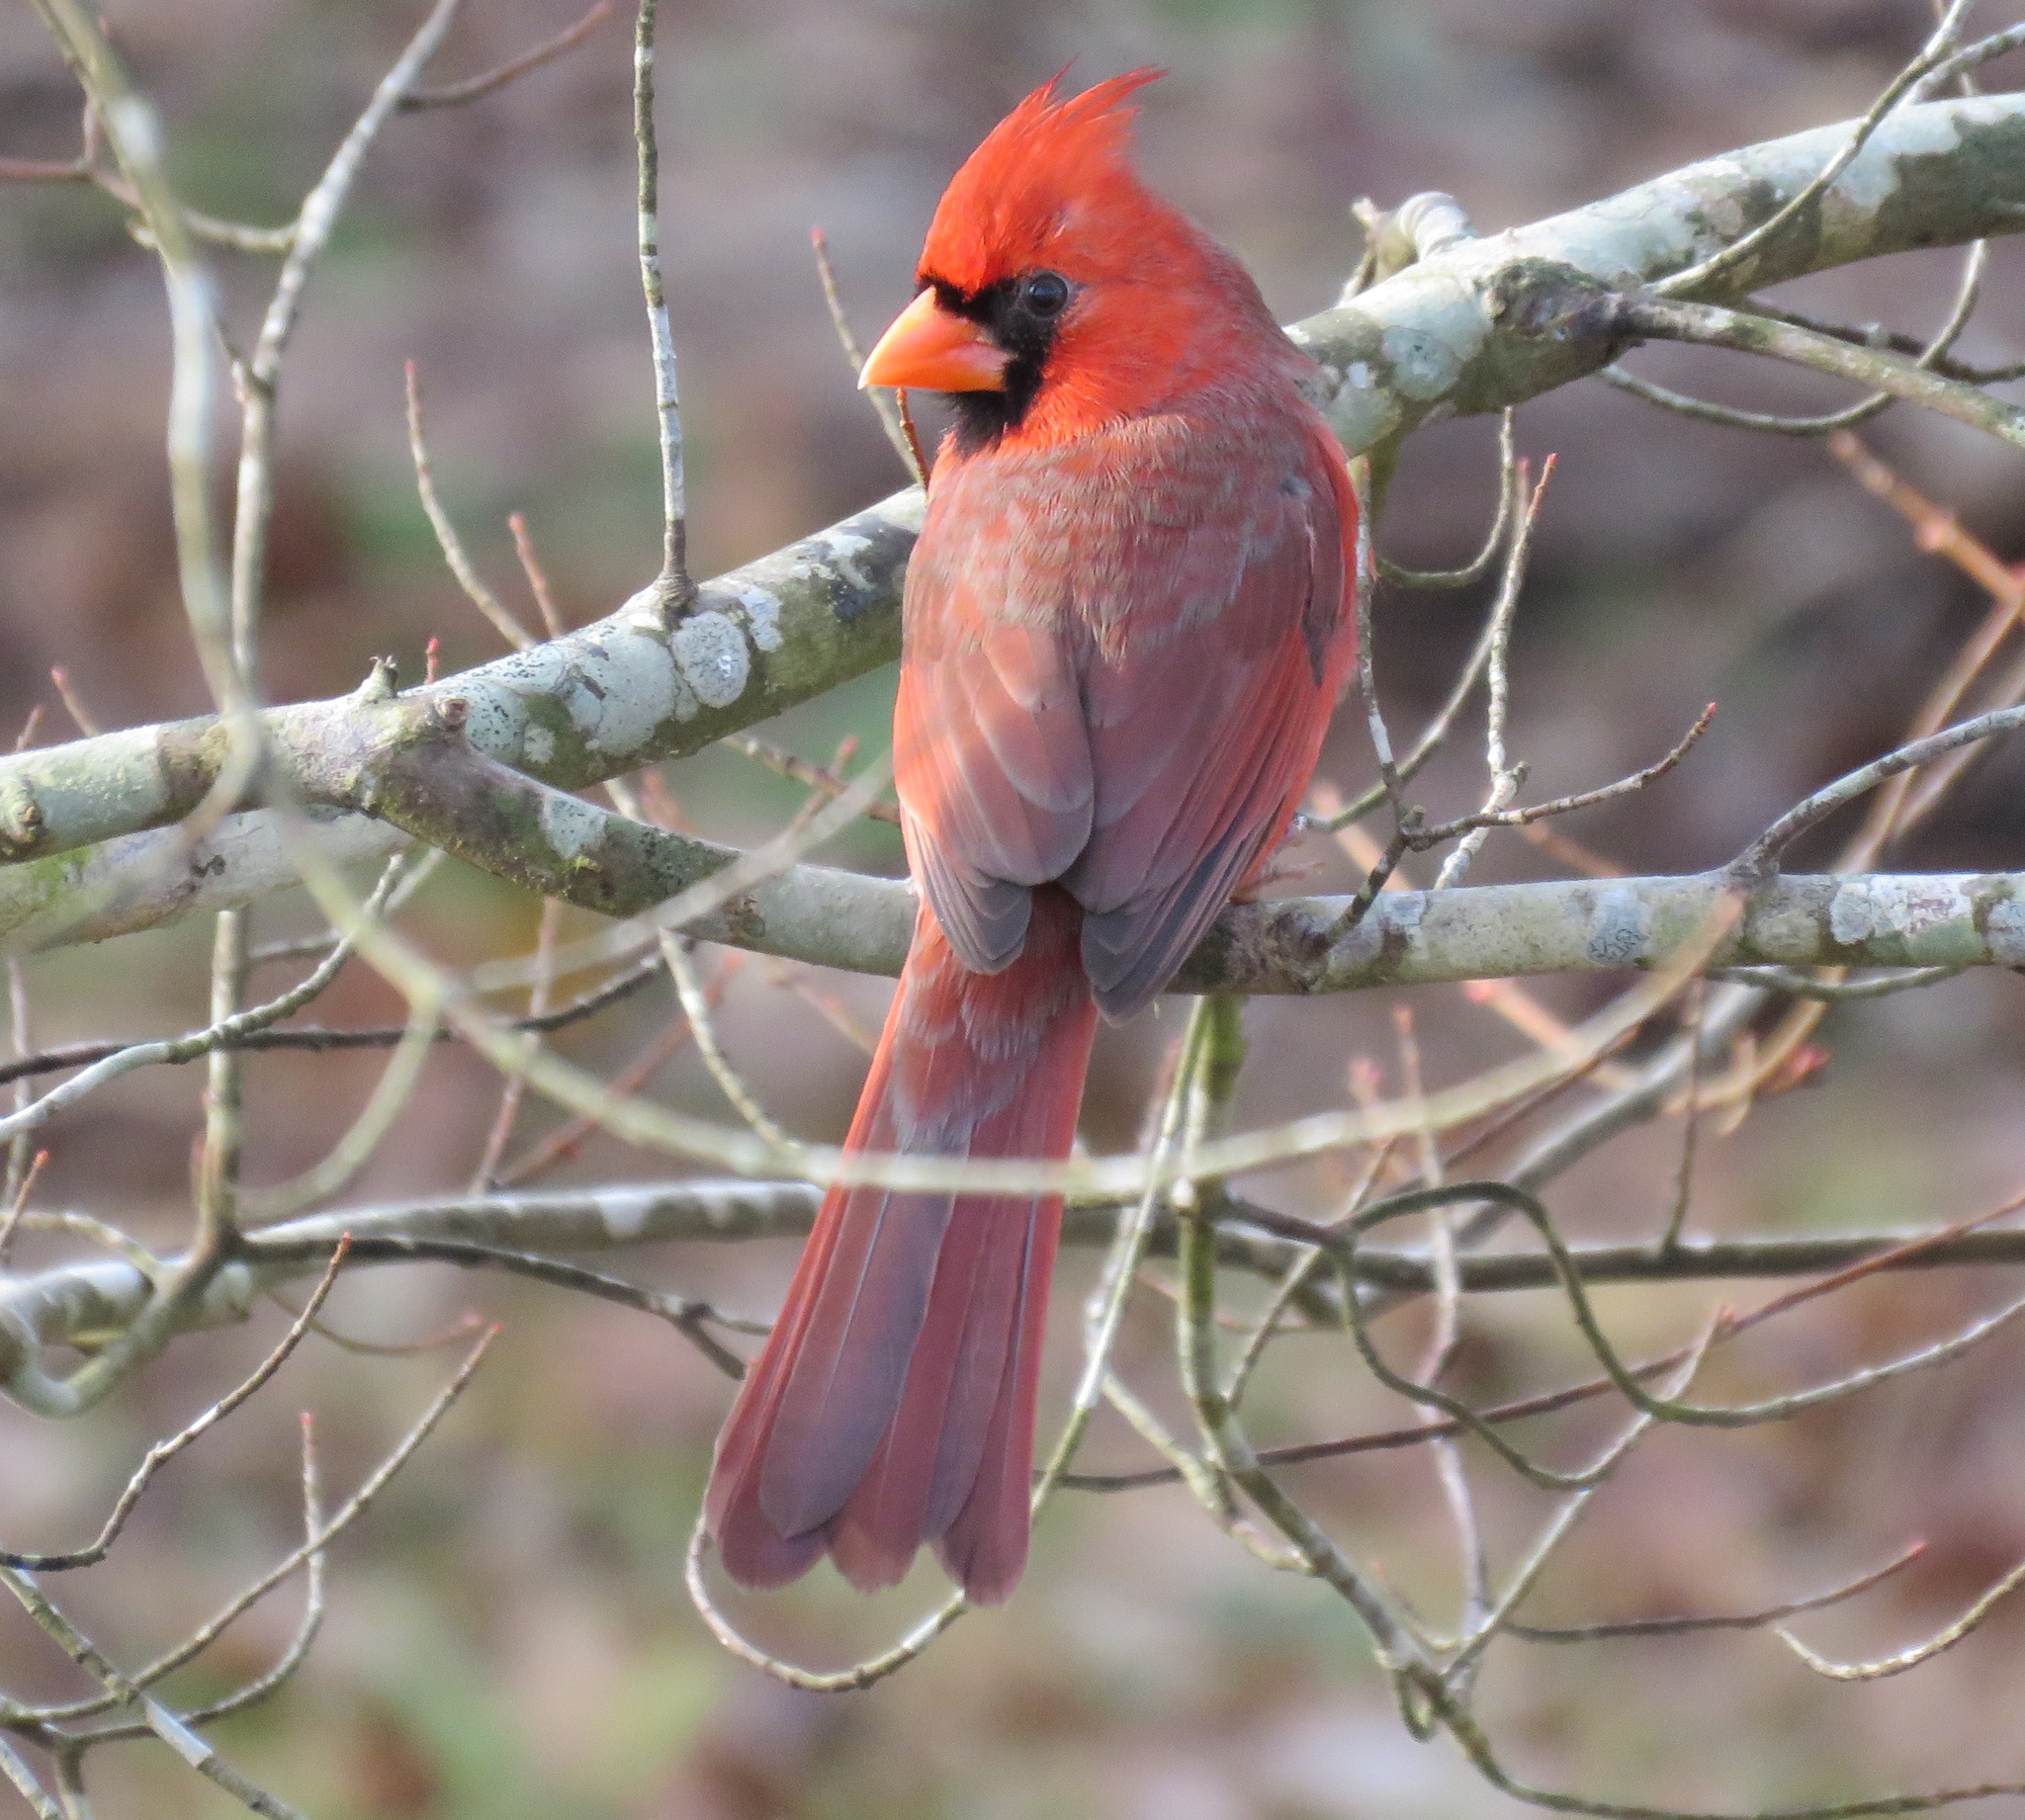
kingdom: Animalia
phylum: Chordata
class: Aves
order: Passeriformes
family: Cardinalidae
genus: Cardinalis
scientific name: Cardinalis cardinalis
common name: Northern cardinal
